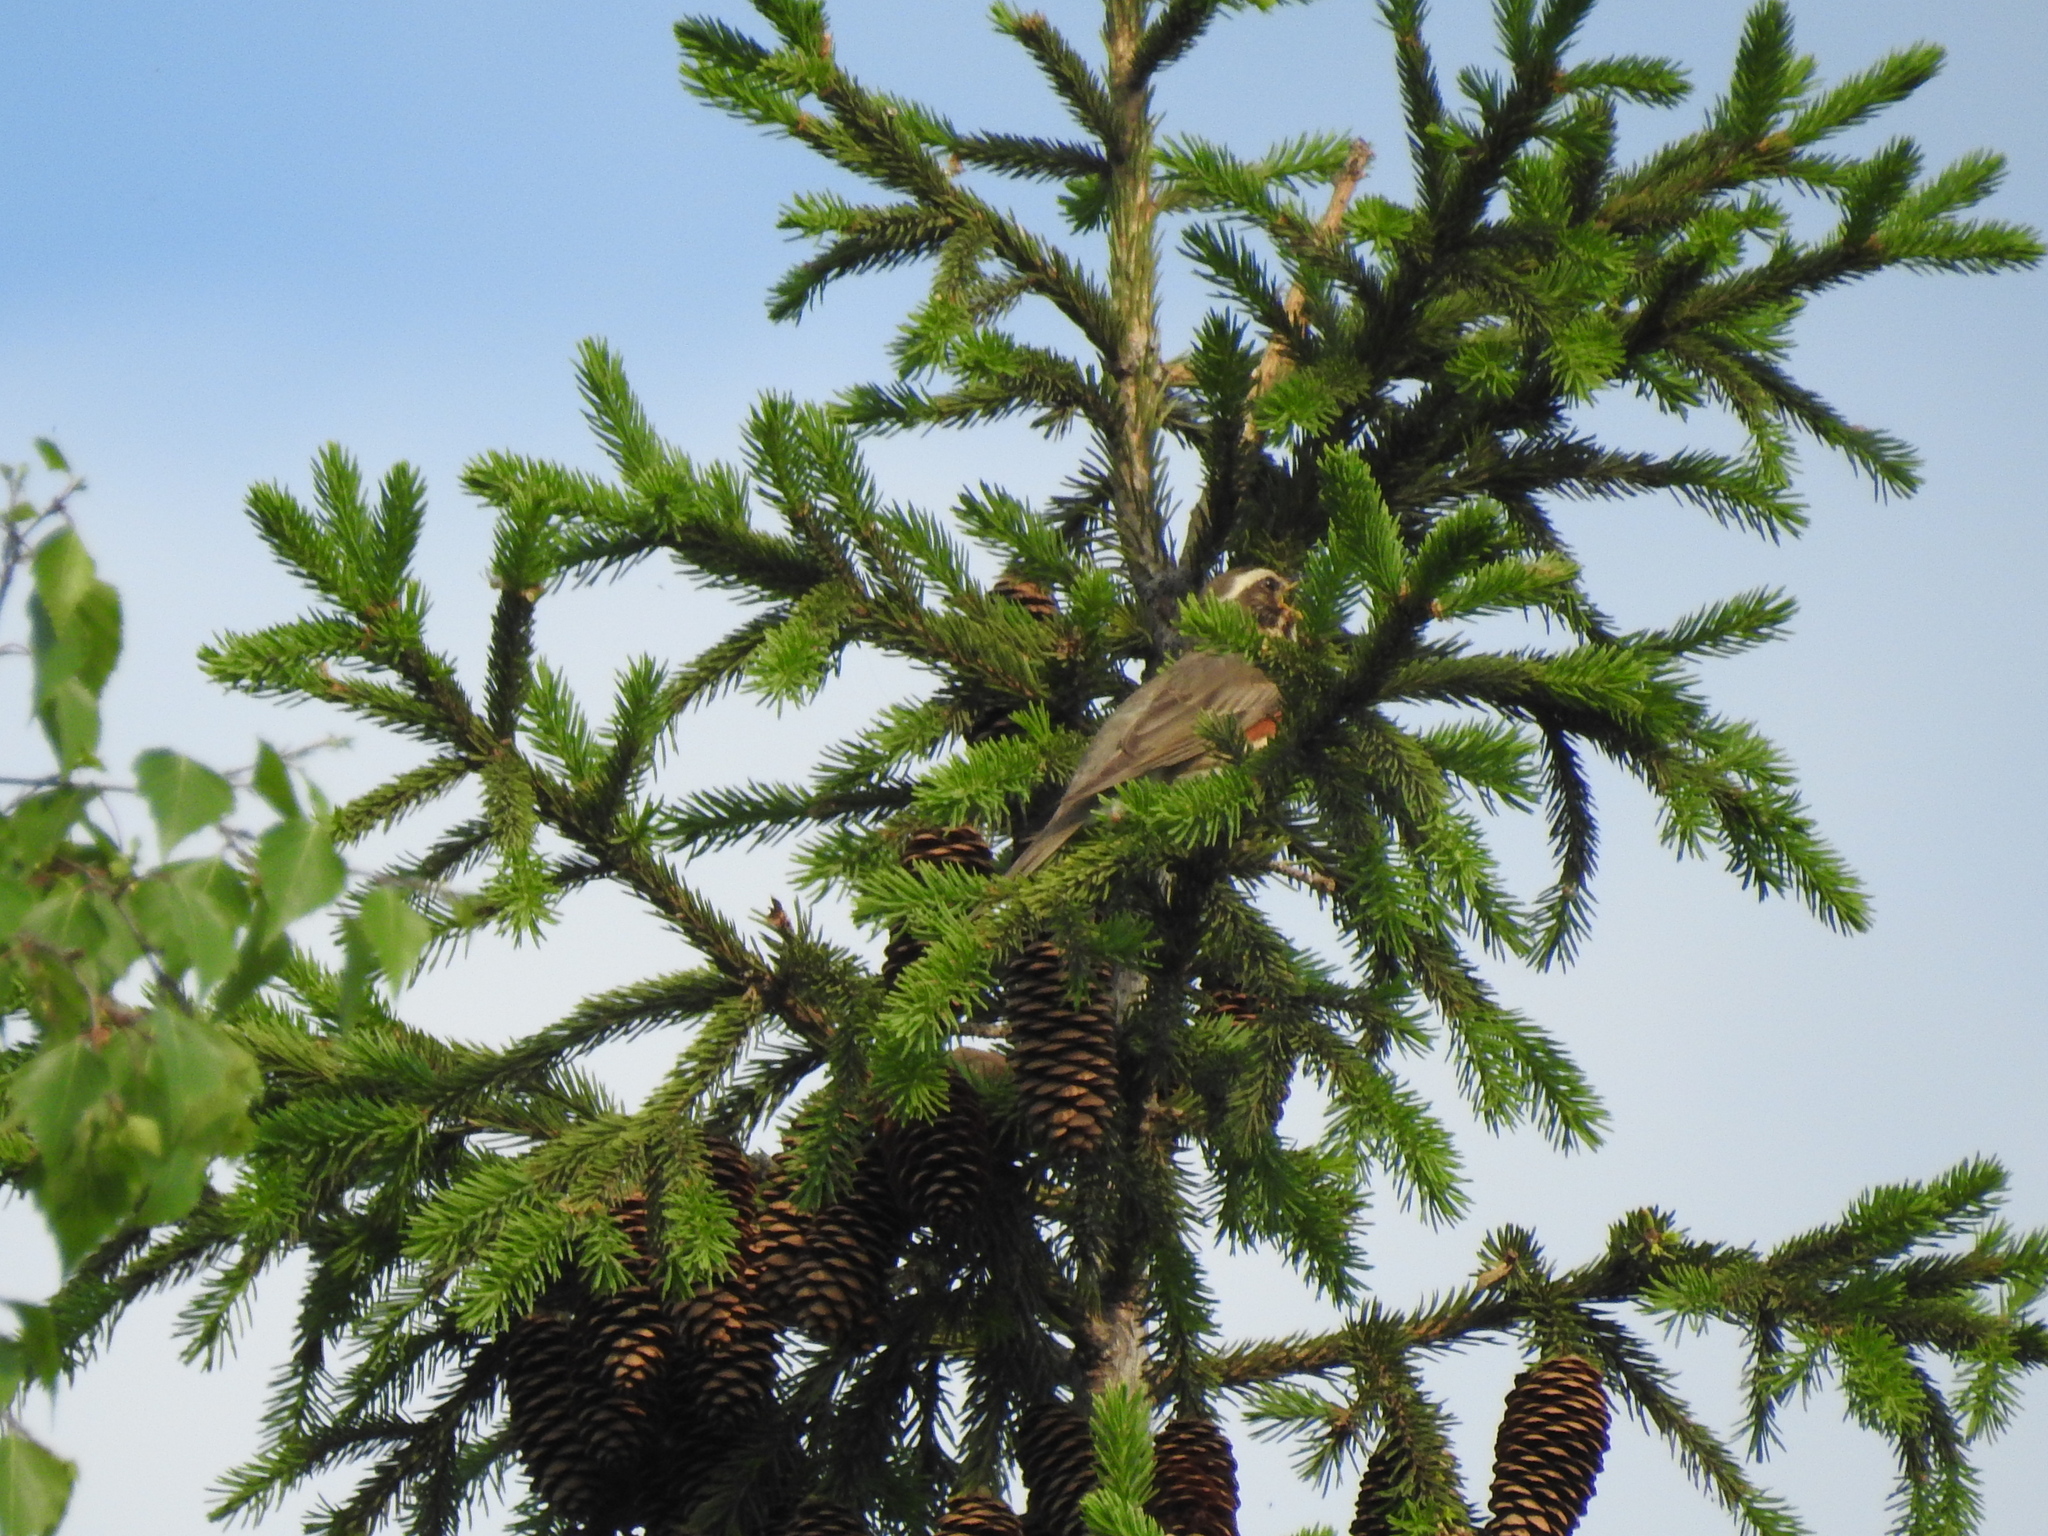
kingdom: Animalia
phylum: Chordata
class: Aves
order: Passeriformes
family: Turdidae
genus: Turdus
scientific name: Turdus iliacus
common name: Redwing
